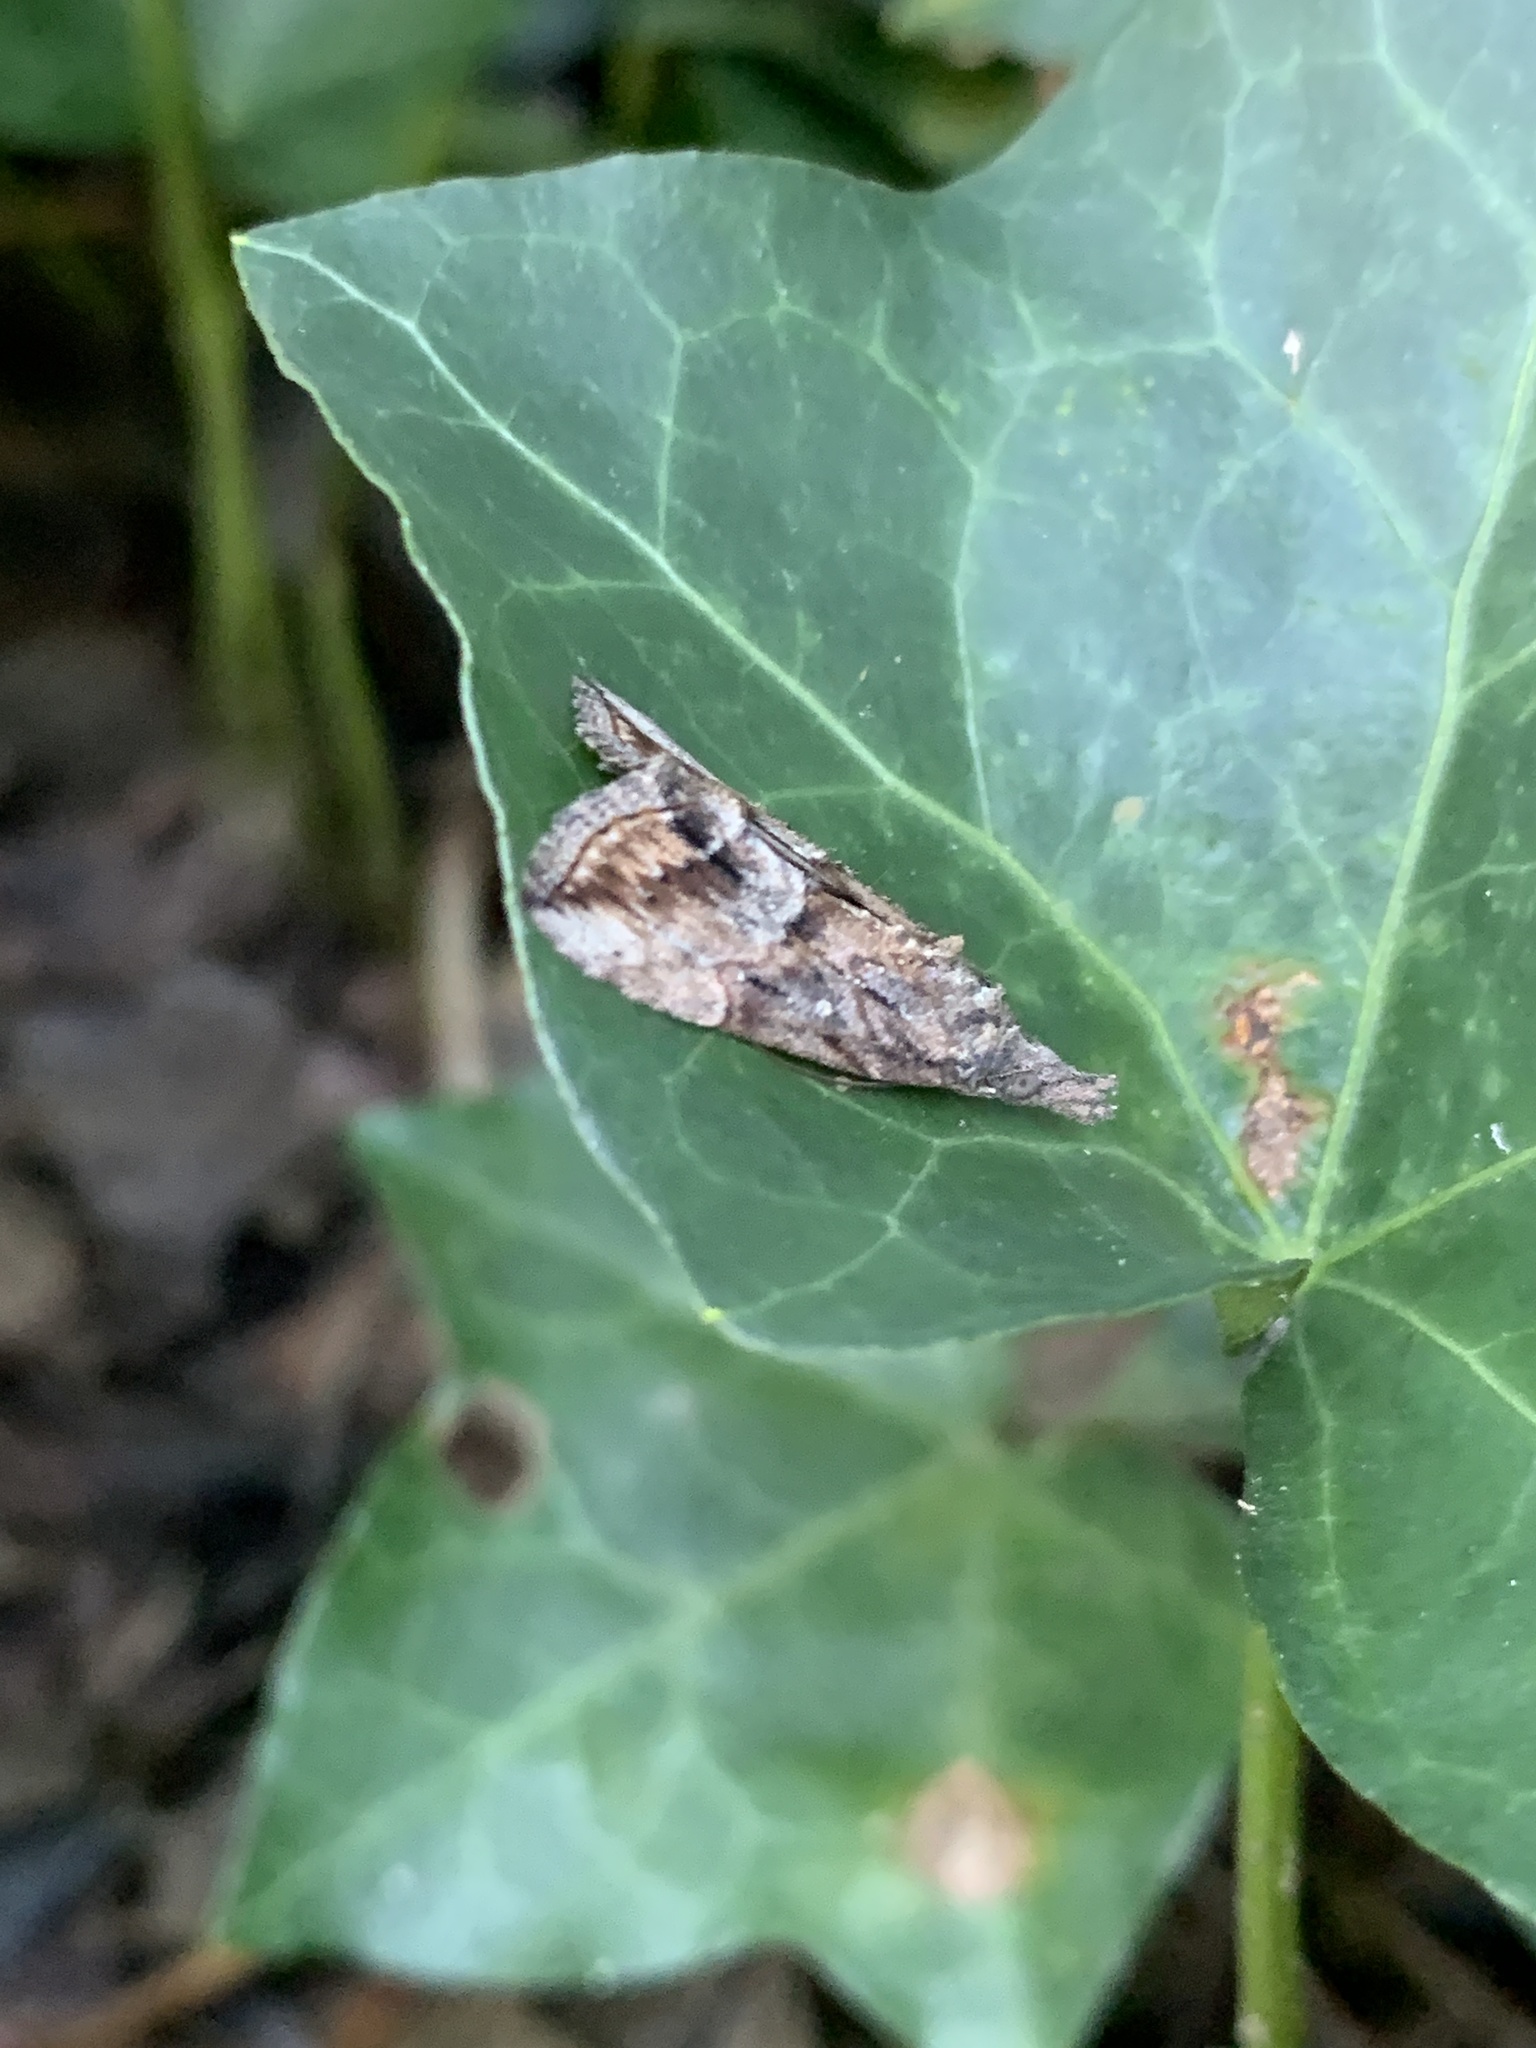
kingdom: Animalia
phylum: Arthropoda
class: Insecta
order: Lepidoptera
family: Erebidae
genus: Hypena
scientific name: Hypena scabra
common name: Green cloverworm
